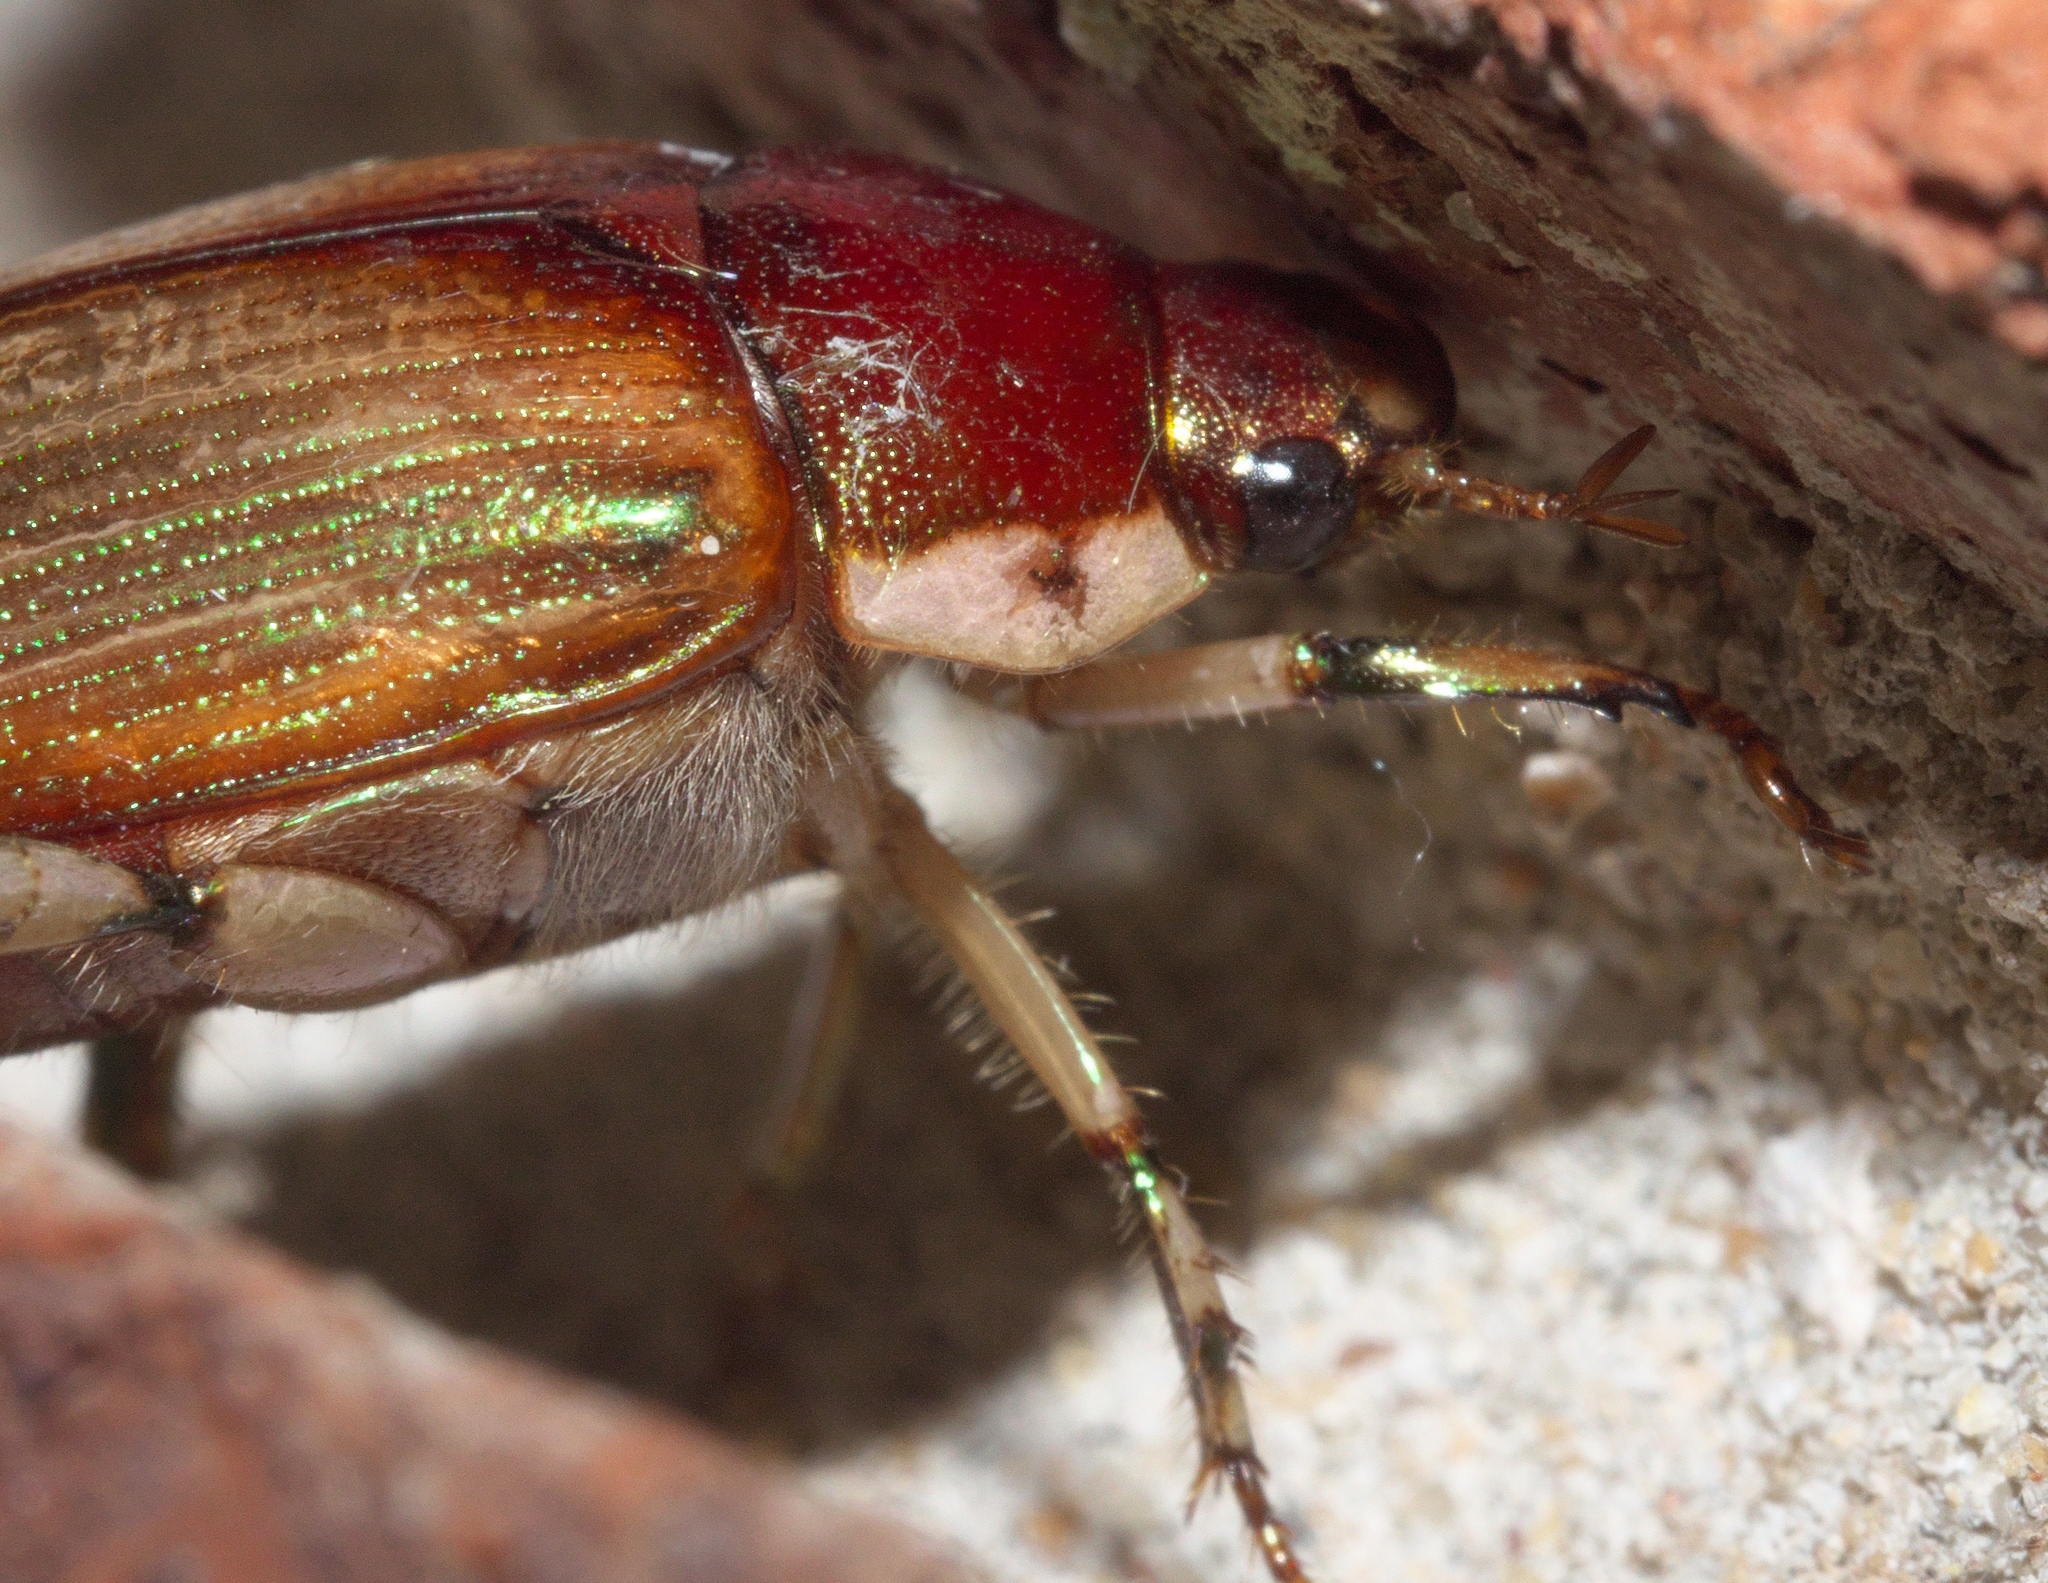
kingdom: Animalia
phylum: Arthropoda
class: Insecta
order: Coleoptera
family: Scarabaeidae
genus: Callistethus
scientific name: Callistethus marginatus
